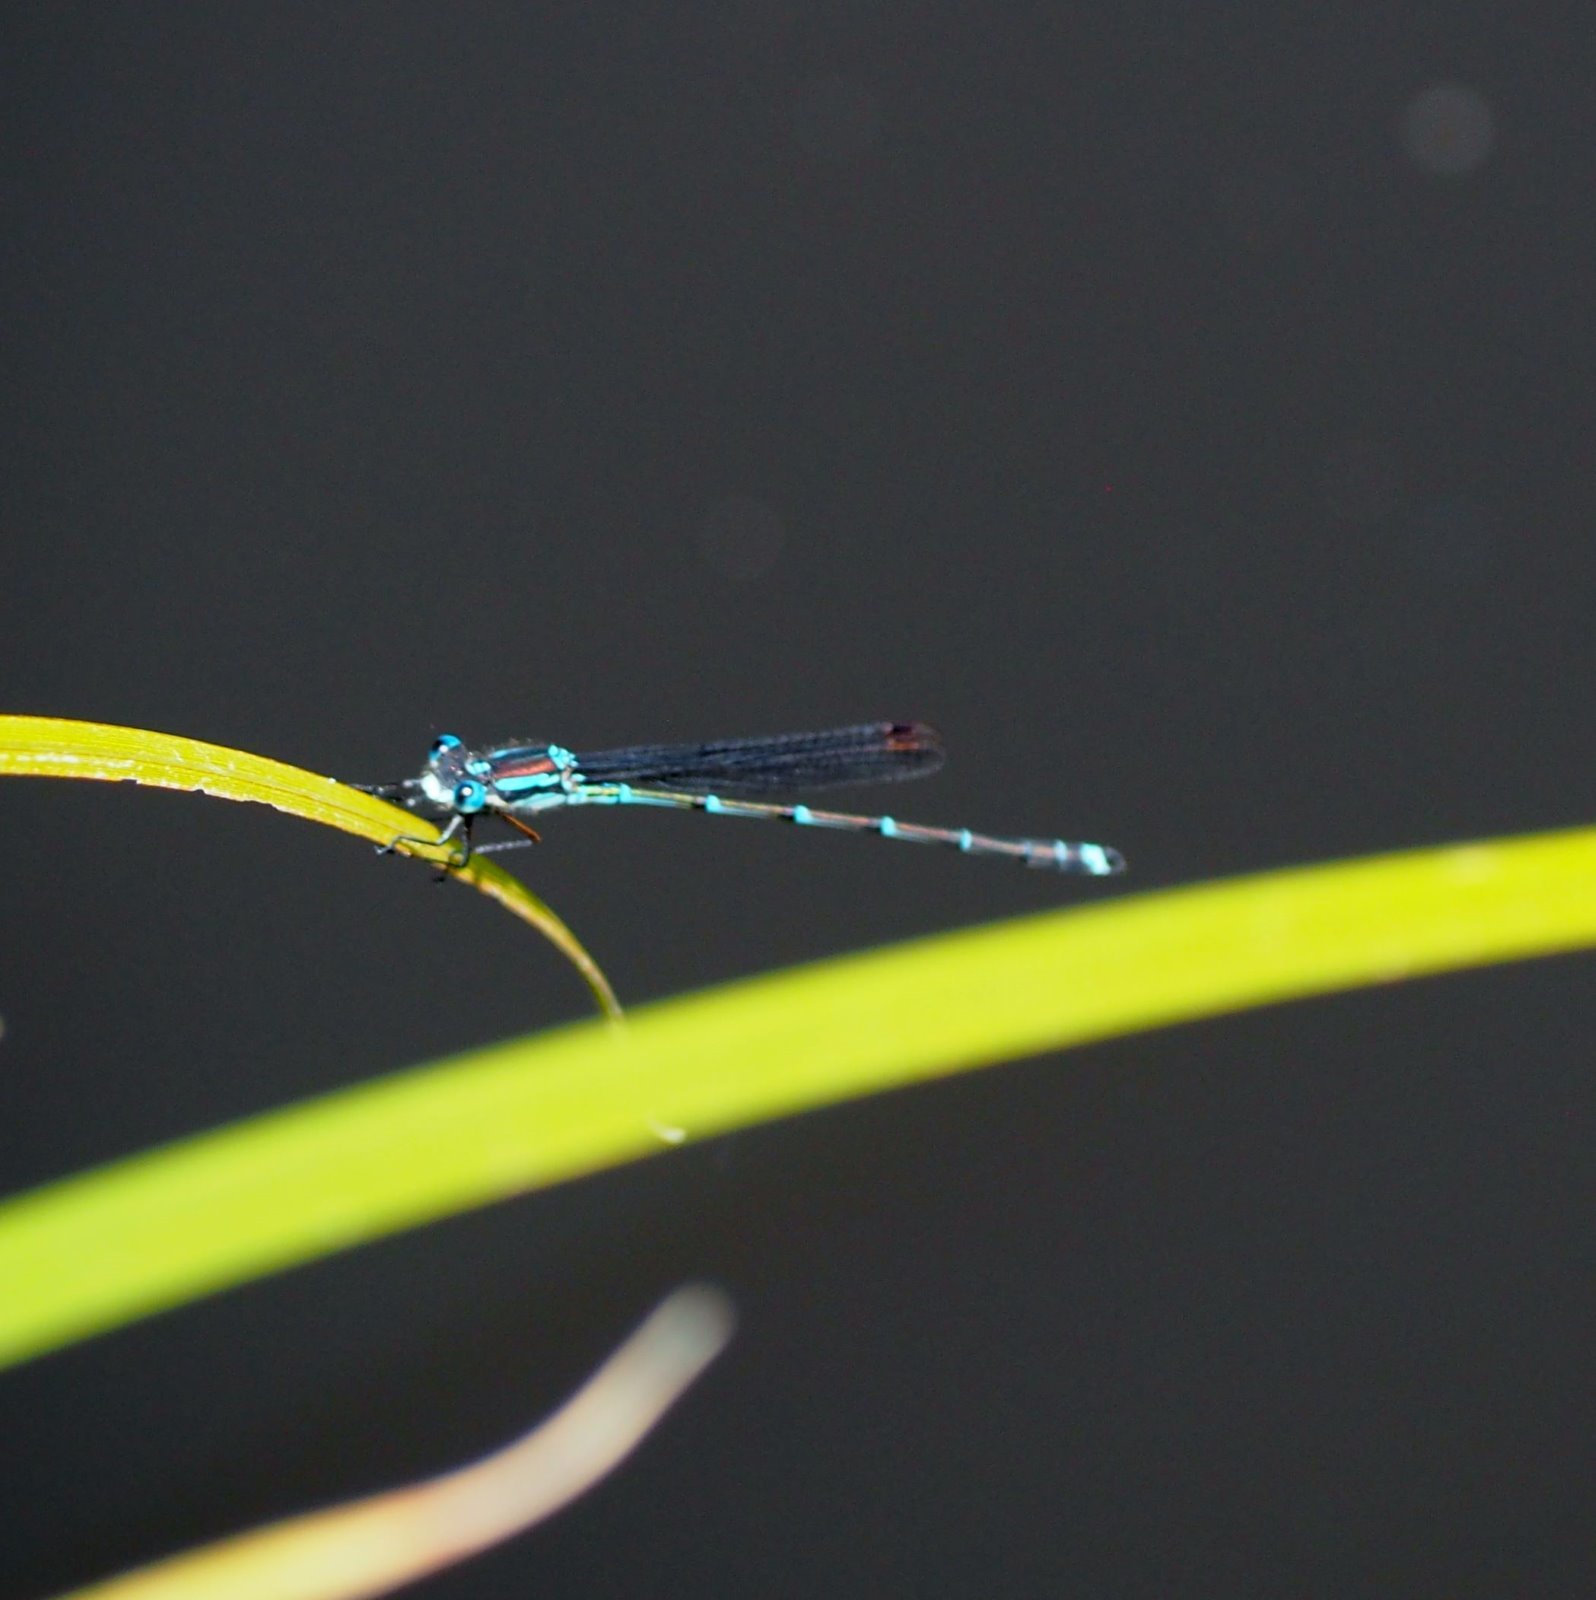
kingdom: Animalia
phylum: Arthropoda
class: Insecta
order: Odonata
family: Lestidae
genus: Austrolestes
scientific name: Austrolestes colensonis
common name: Blue damselfly
